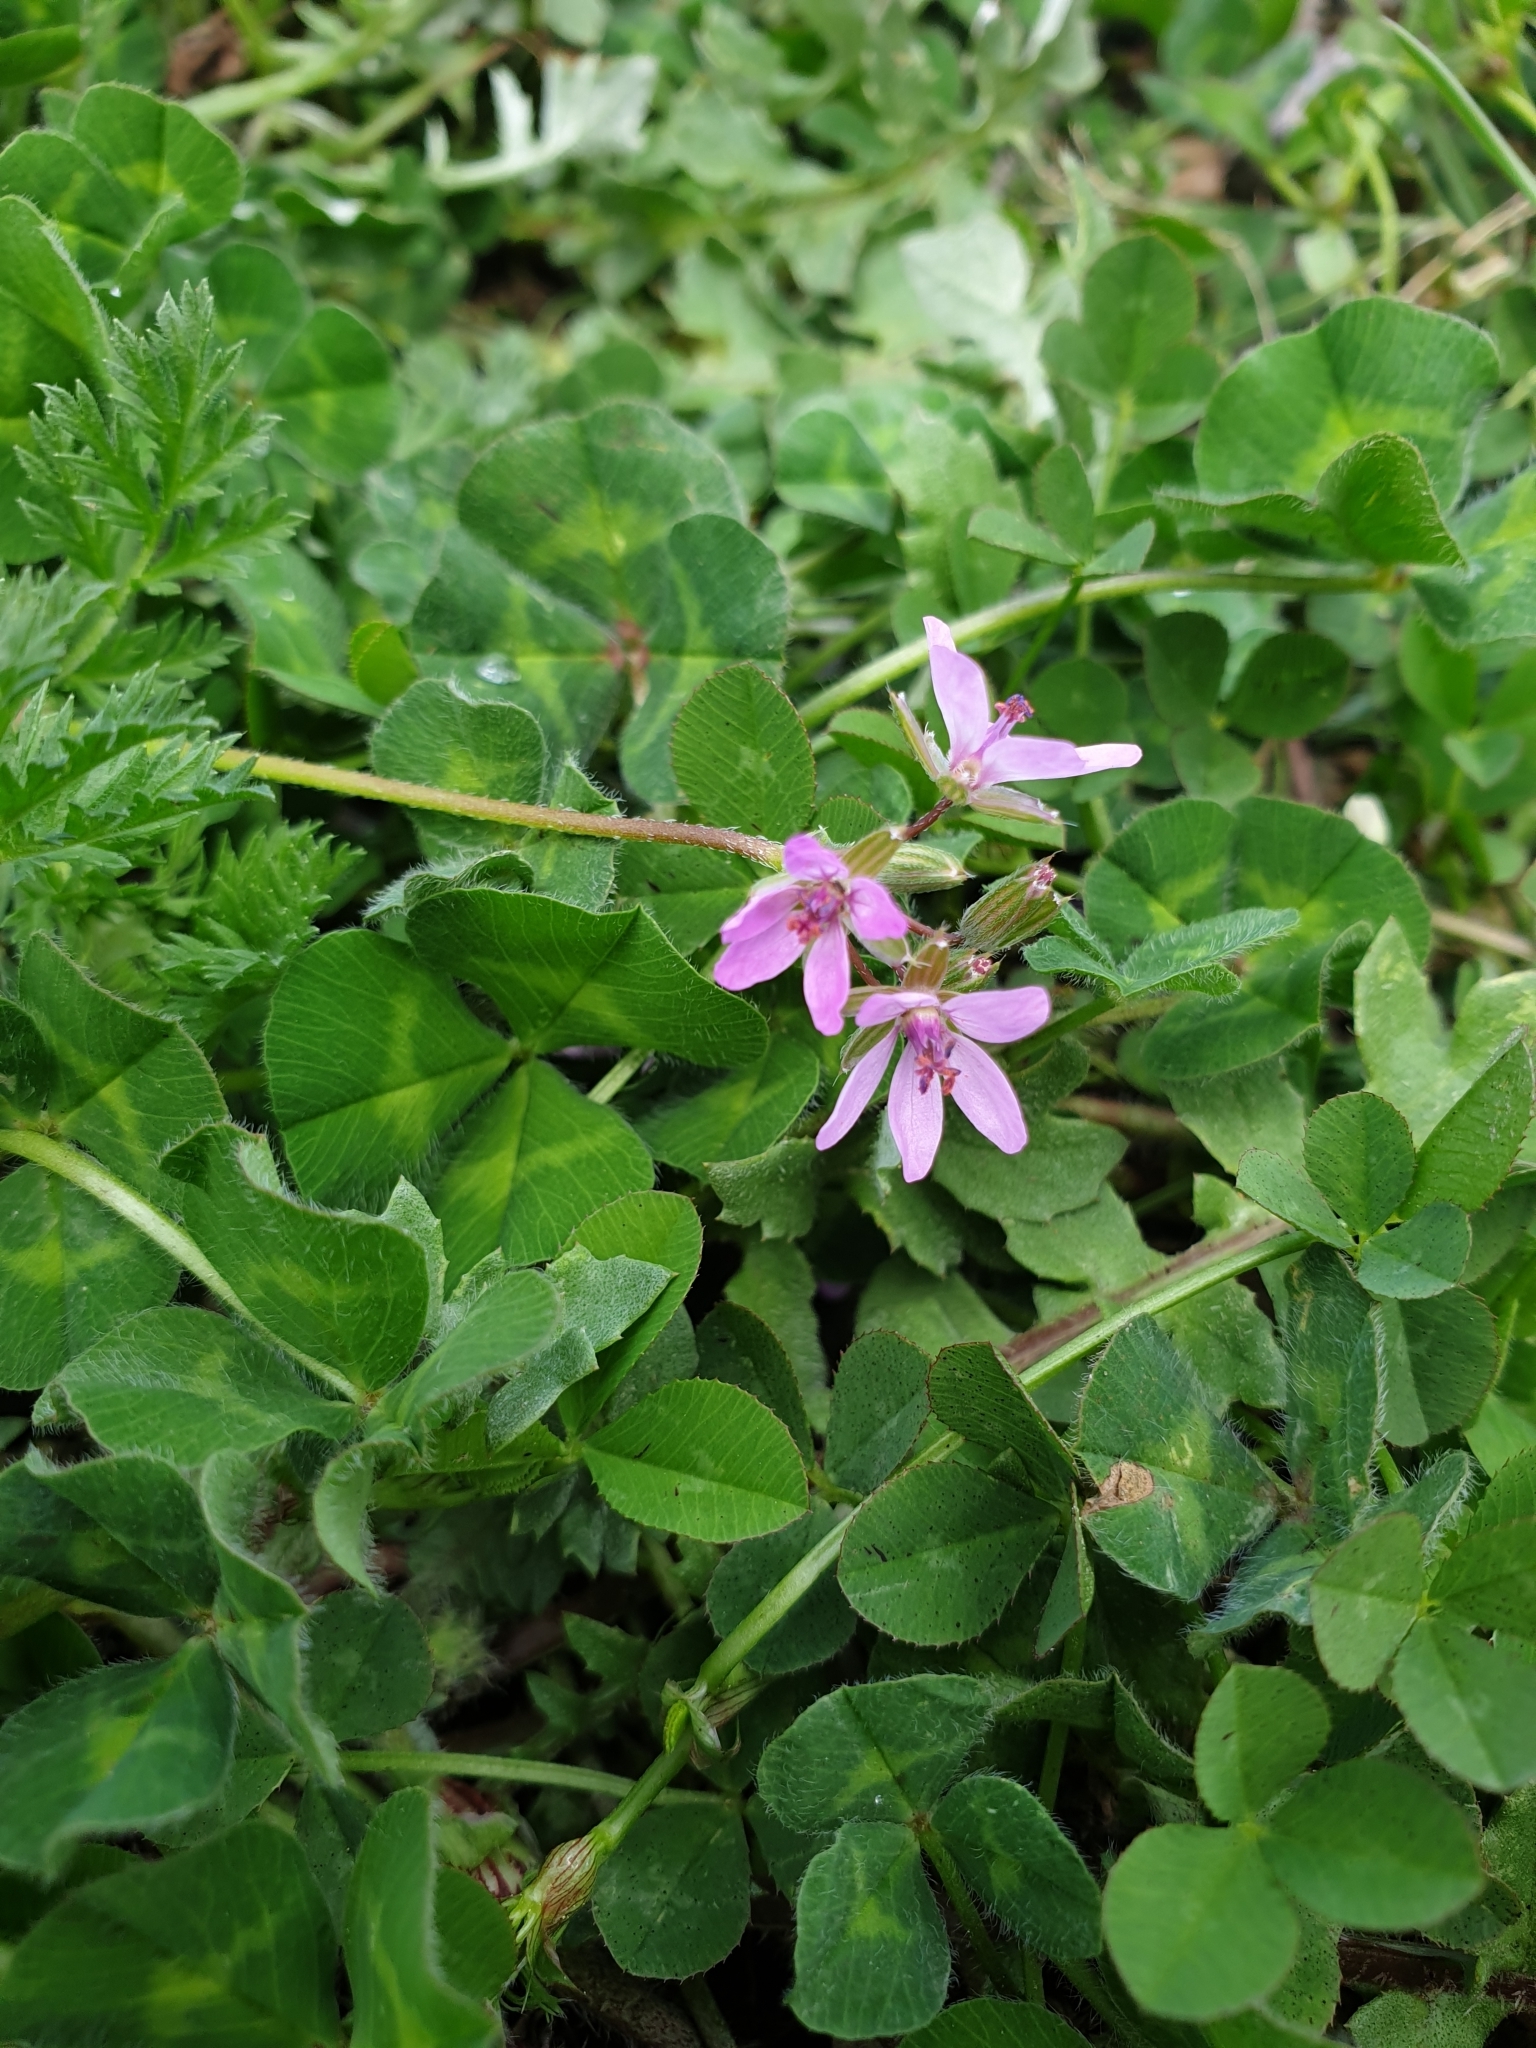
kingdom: Plantae
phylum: Tracheophyta
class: Magnoliopsida
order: Geraniales
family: Geraniaceae
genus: Erodium
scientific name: Erodium cicutarium
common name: Common stork's-bill
